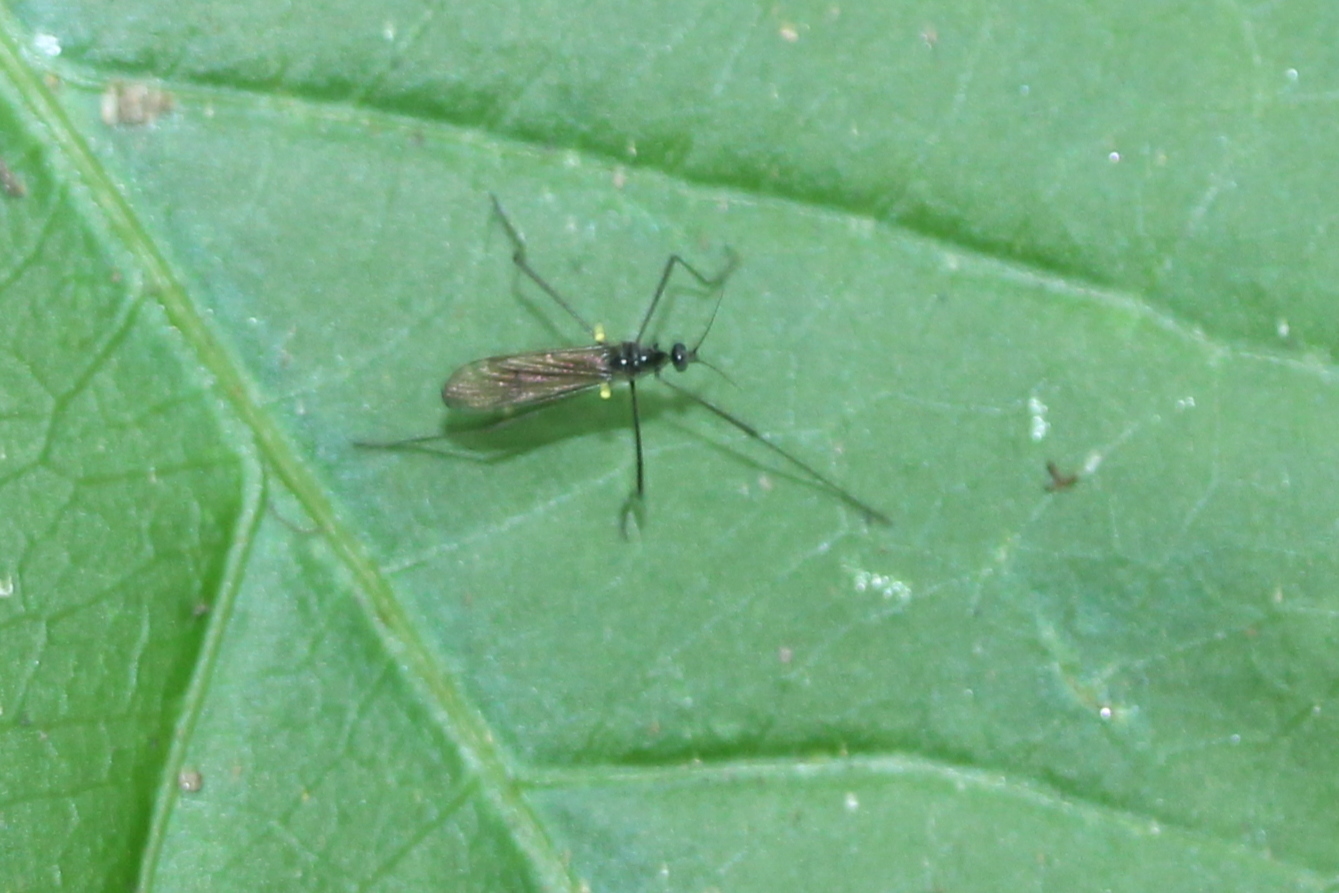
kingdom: Animalia
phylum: Arthropoda
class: Insecta
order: Diptera
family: Limoniidae
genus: Gnophomyia
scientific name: Gnophomyia tristissima
